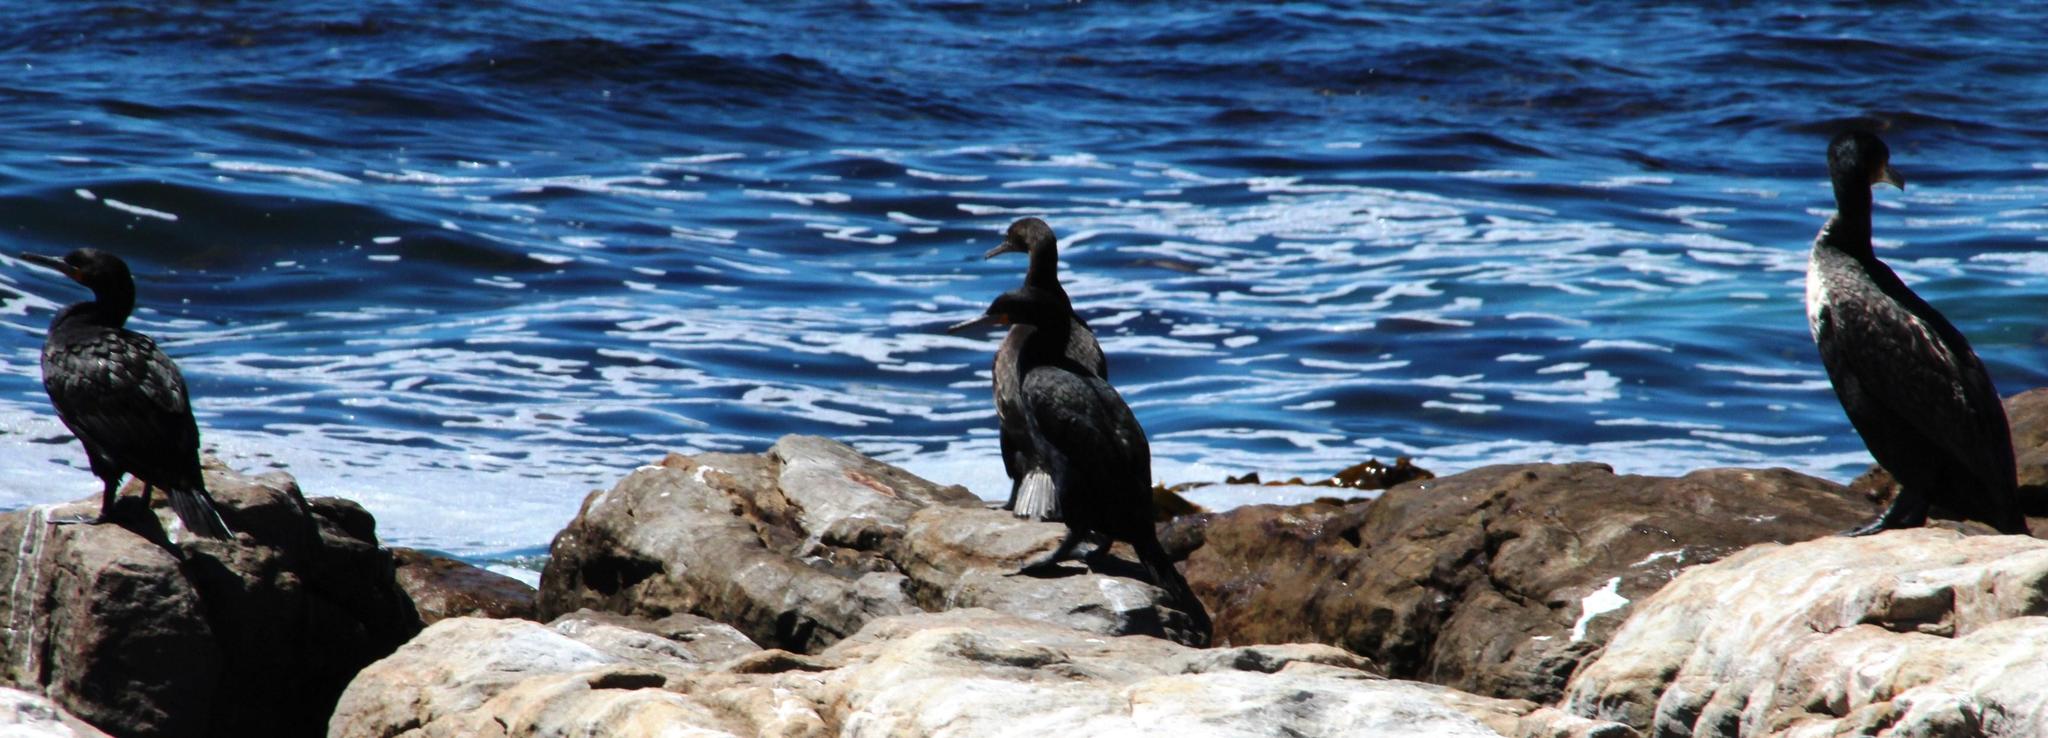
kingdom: Animalia
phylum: Chordata
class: Aves
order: Suliformes
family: Phalacrocoracidae
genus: Phalacrocorax
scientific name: Phalacrocorax capensis
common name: Cape cormorant
